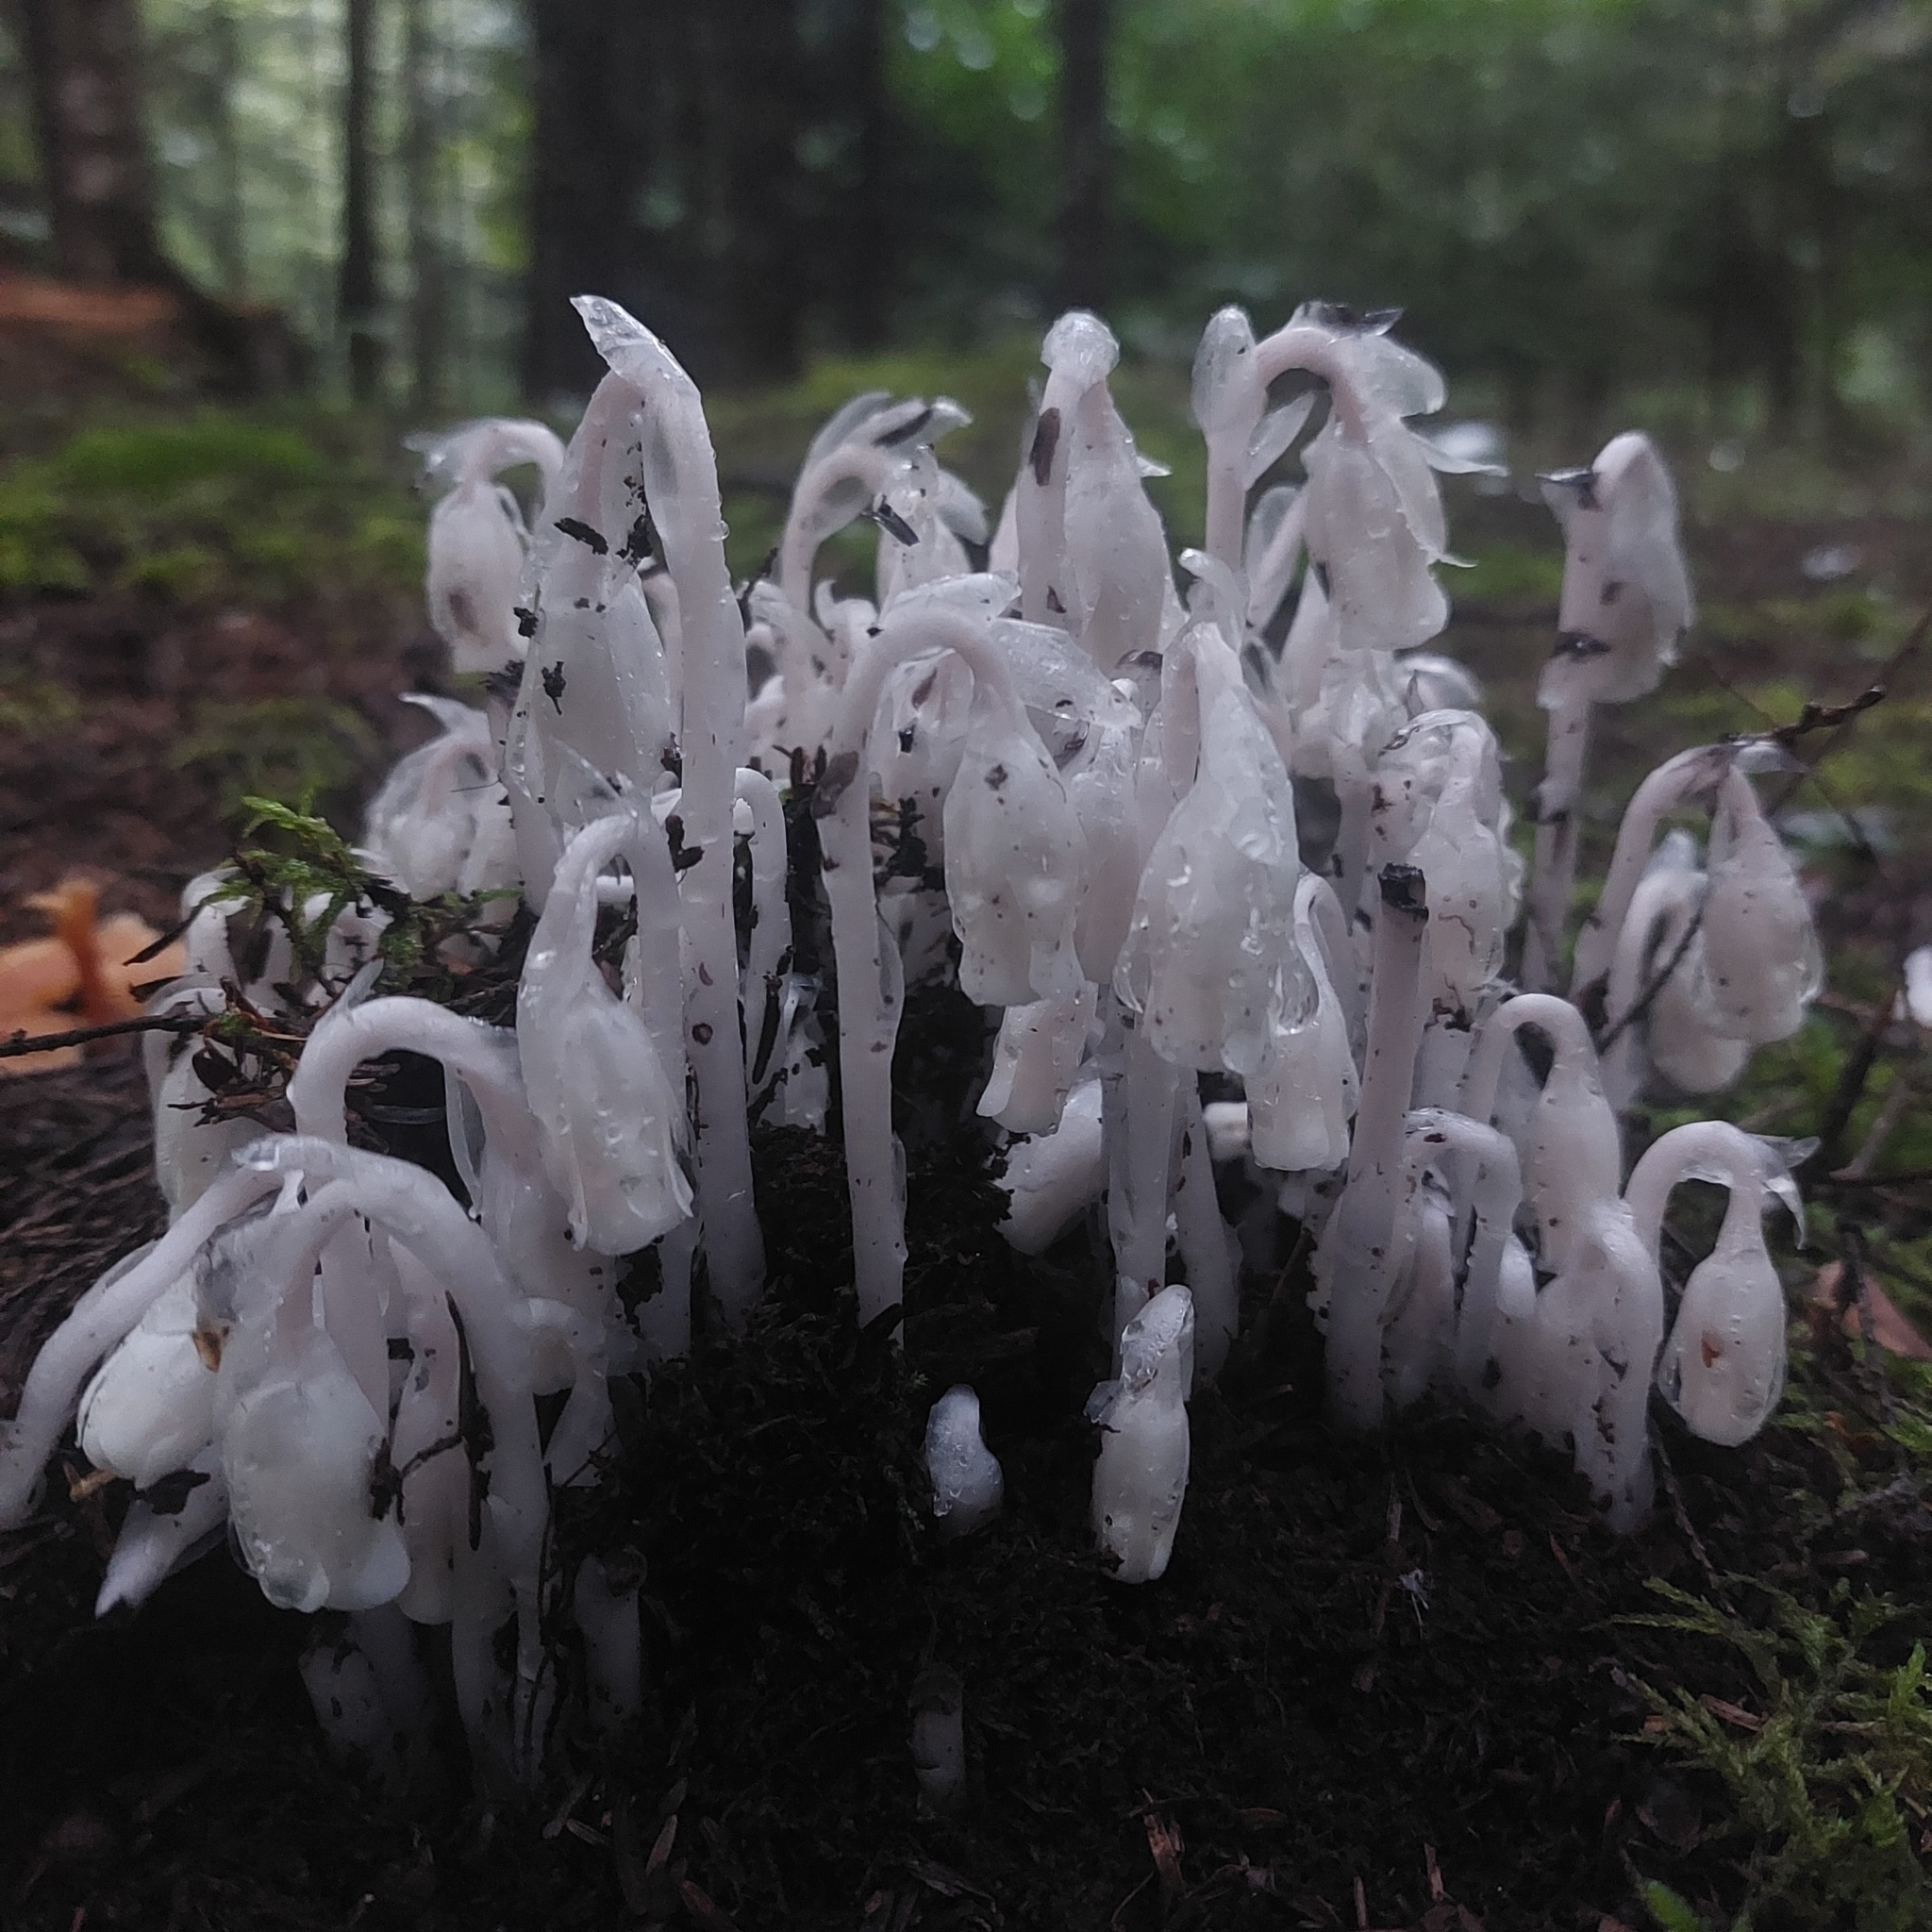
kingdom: Plantae
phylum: Tracheophyta
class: Magnoliopsida
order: Ericales
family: Ericaceae
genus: Monotropa
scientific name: Monotropa uniflora
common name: Convulsion root
